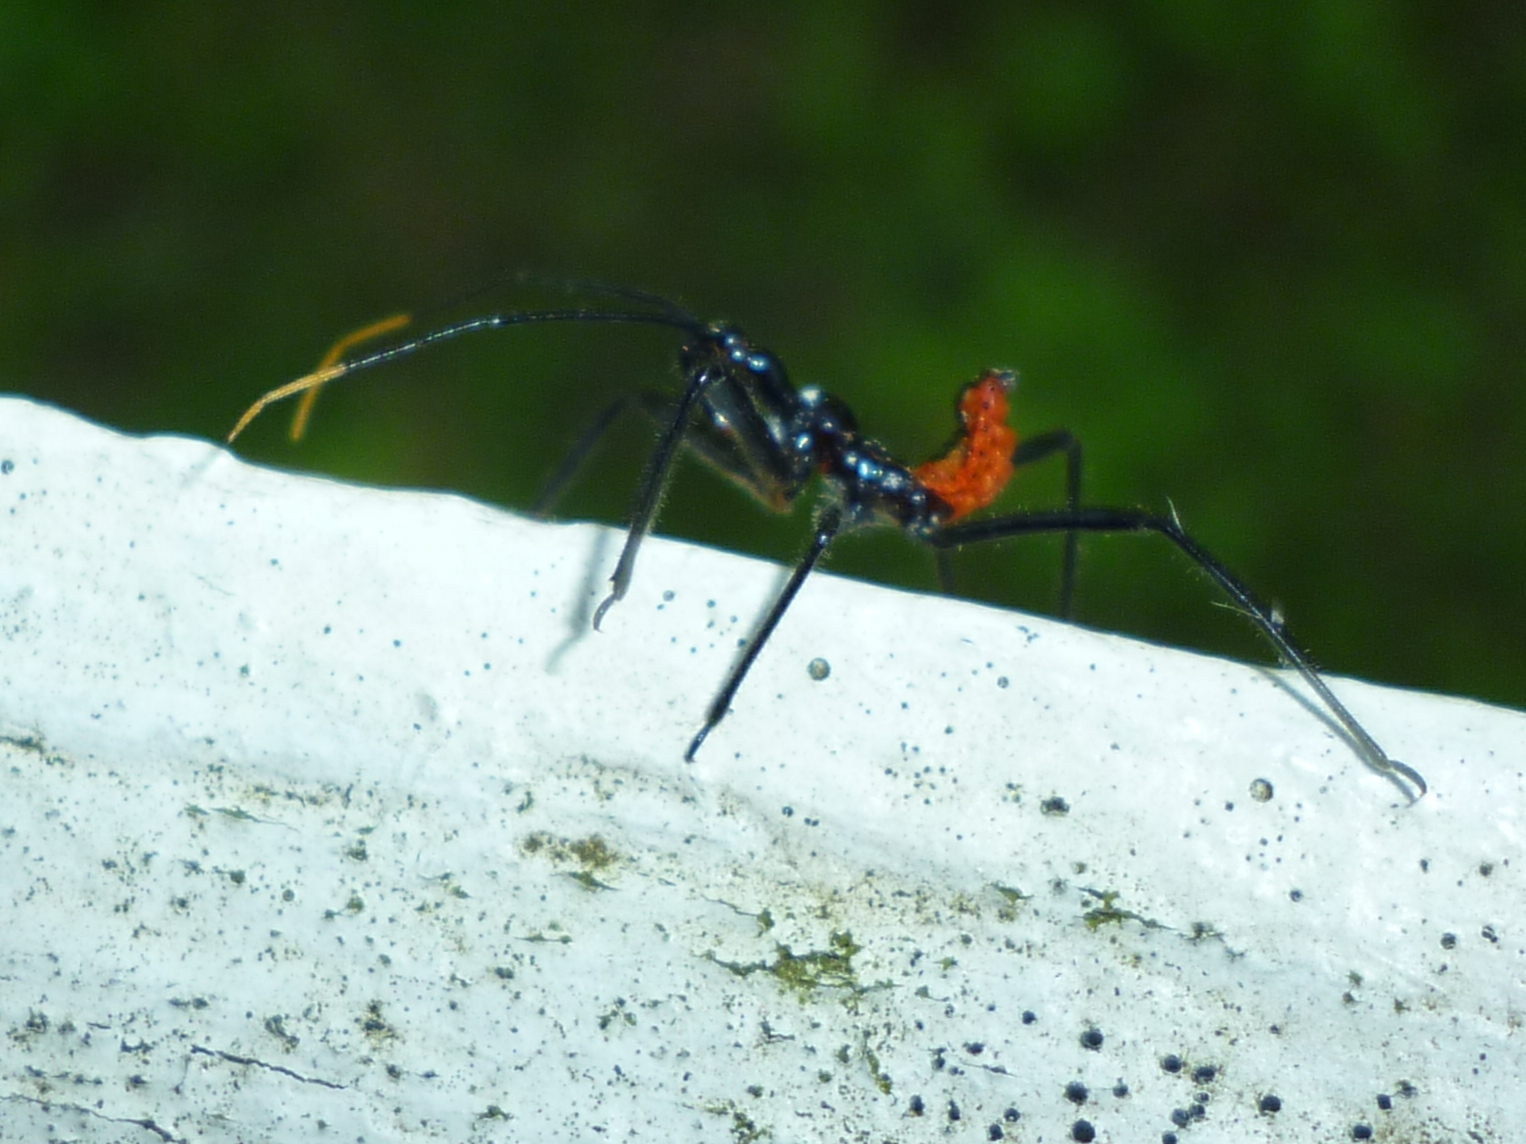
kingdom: Animalia
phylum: Arthropoda
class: Insecta
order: Hemiptera
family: Reduviidae
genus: Arilus
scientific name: Arilus cristatus
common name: North american wheel bug
